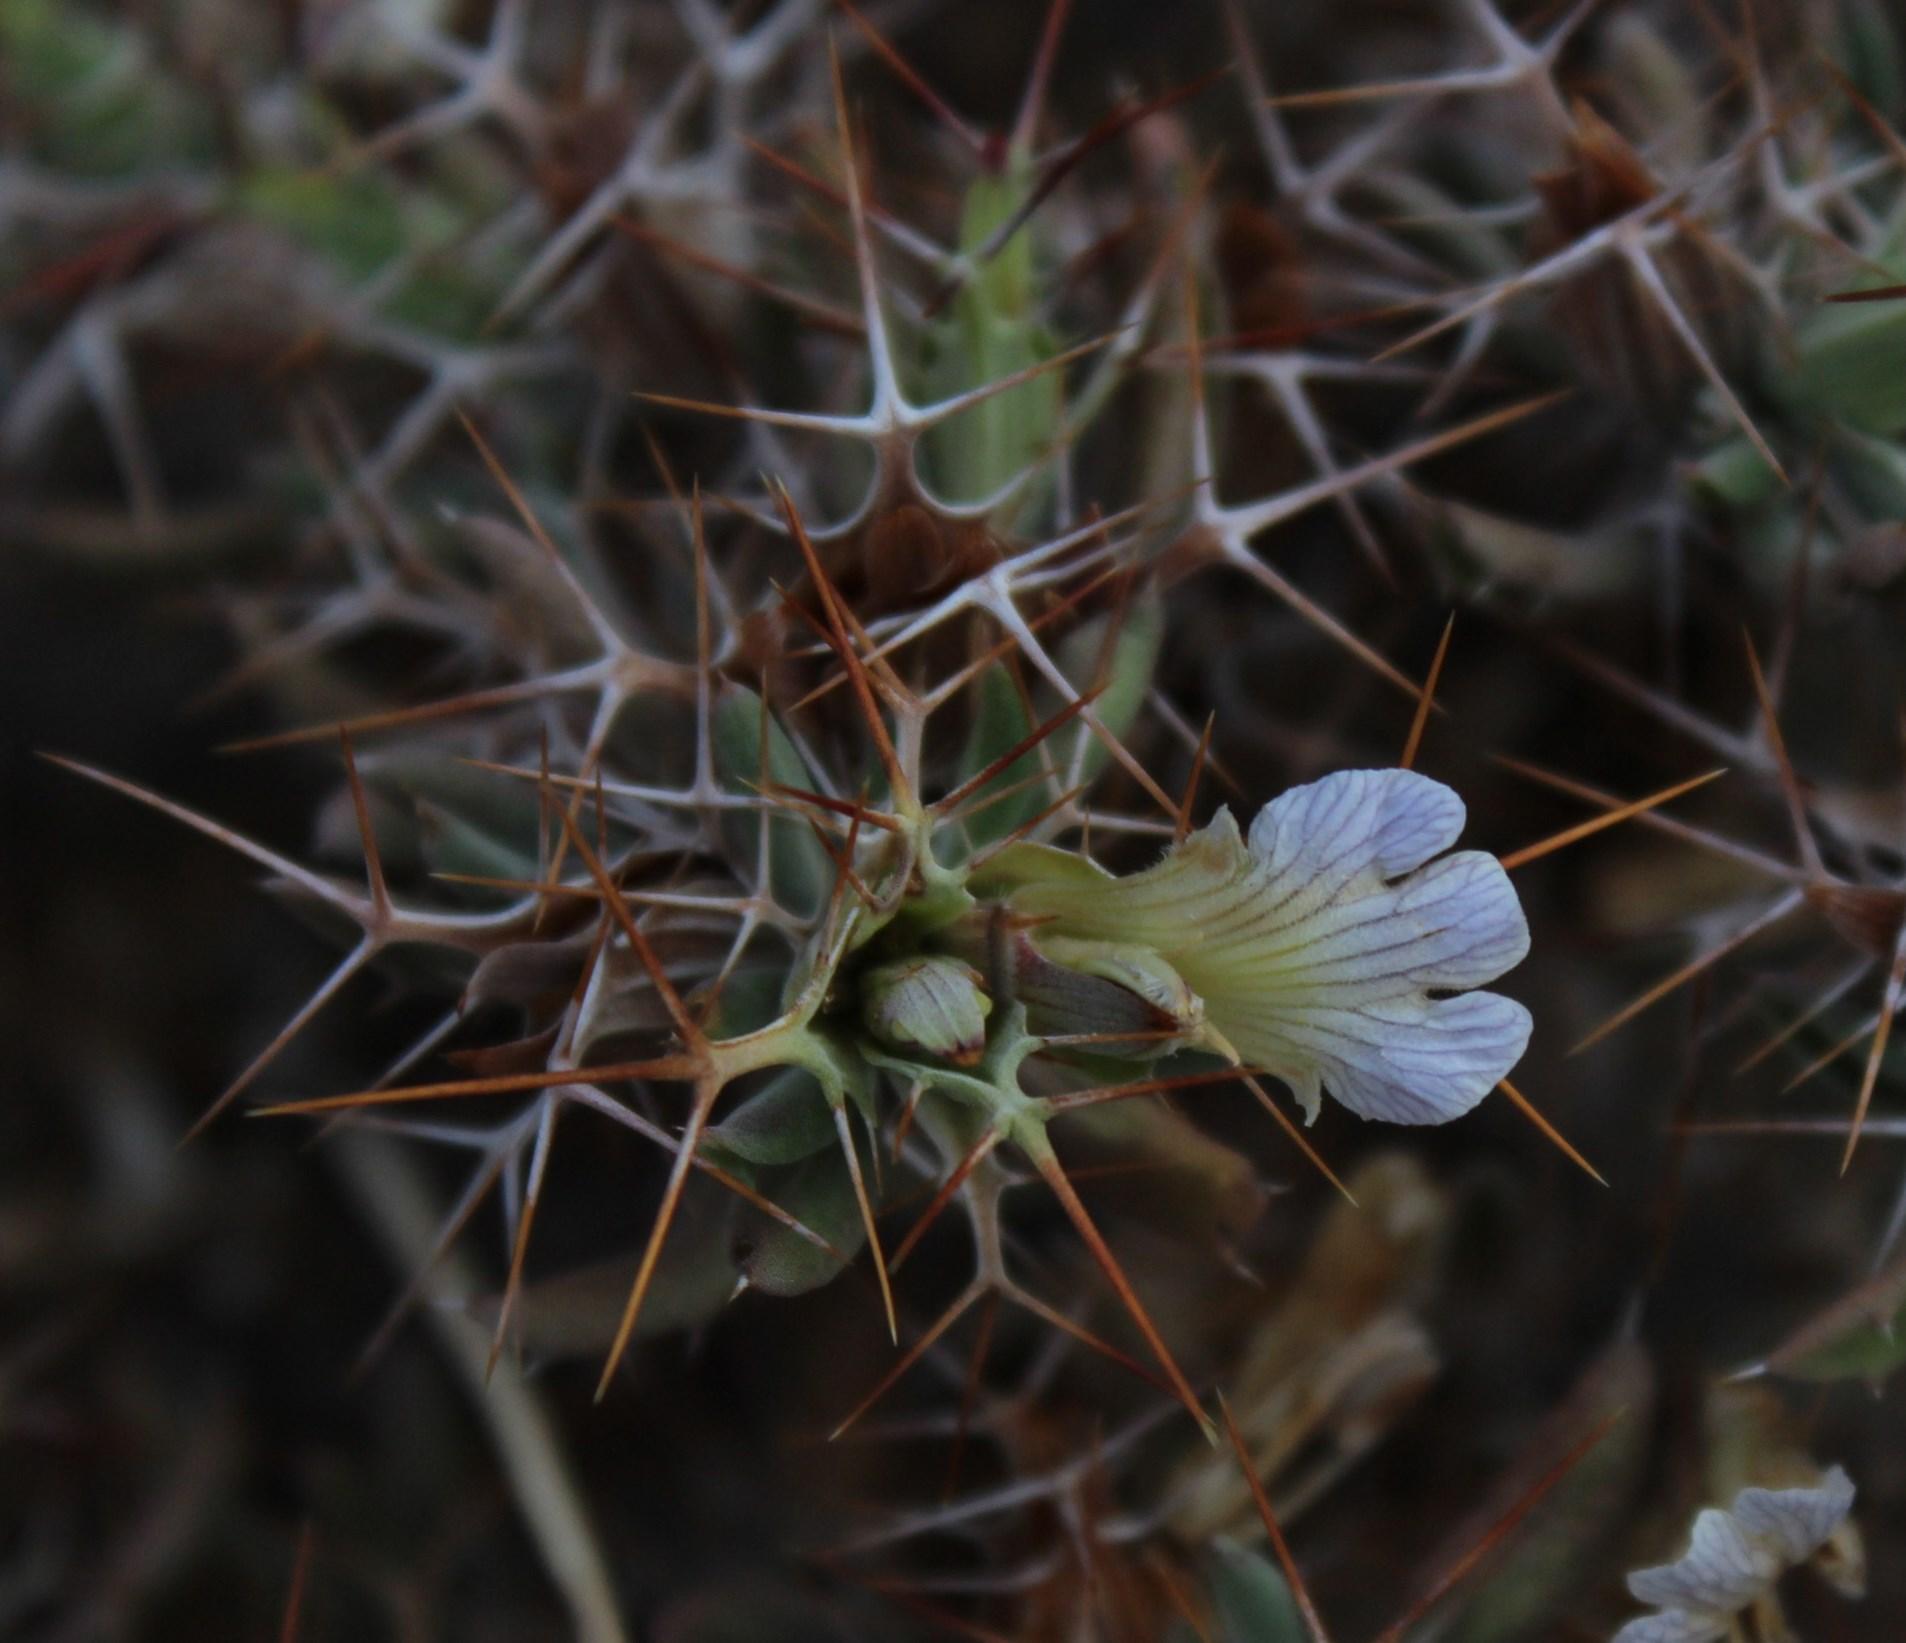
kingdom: Plantae
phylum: Tracheophyta
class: Magnoliopsida
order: Lamiales
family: Acanthaceae
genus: Blepharis
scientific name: Blepharis furcata
